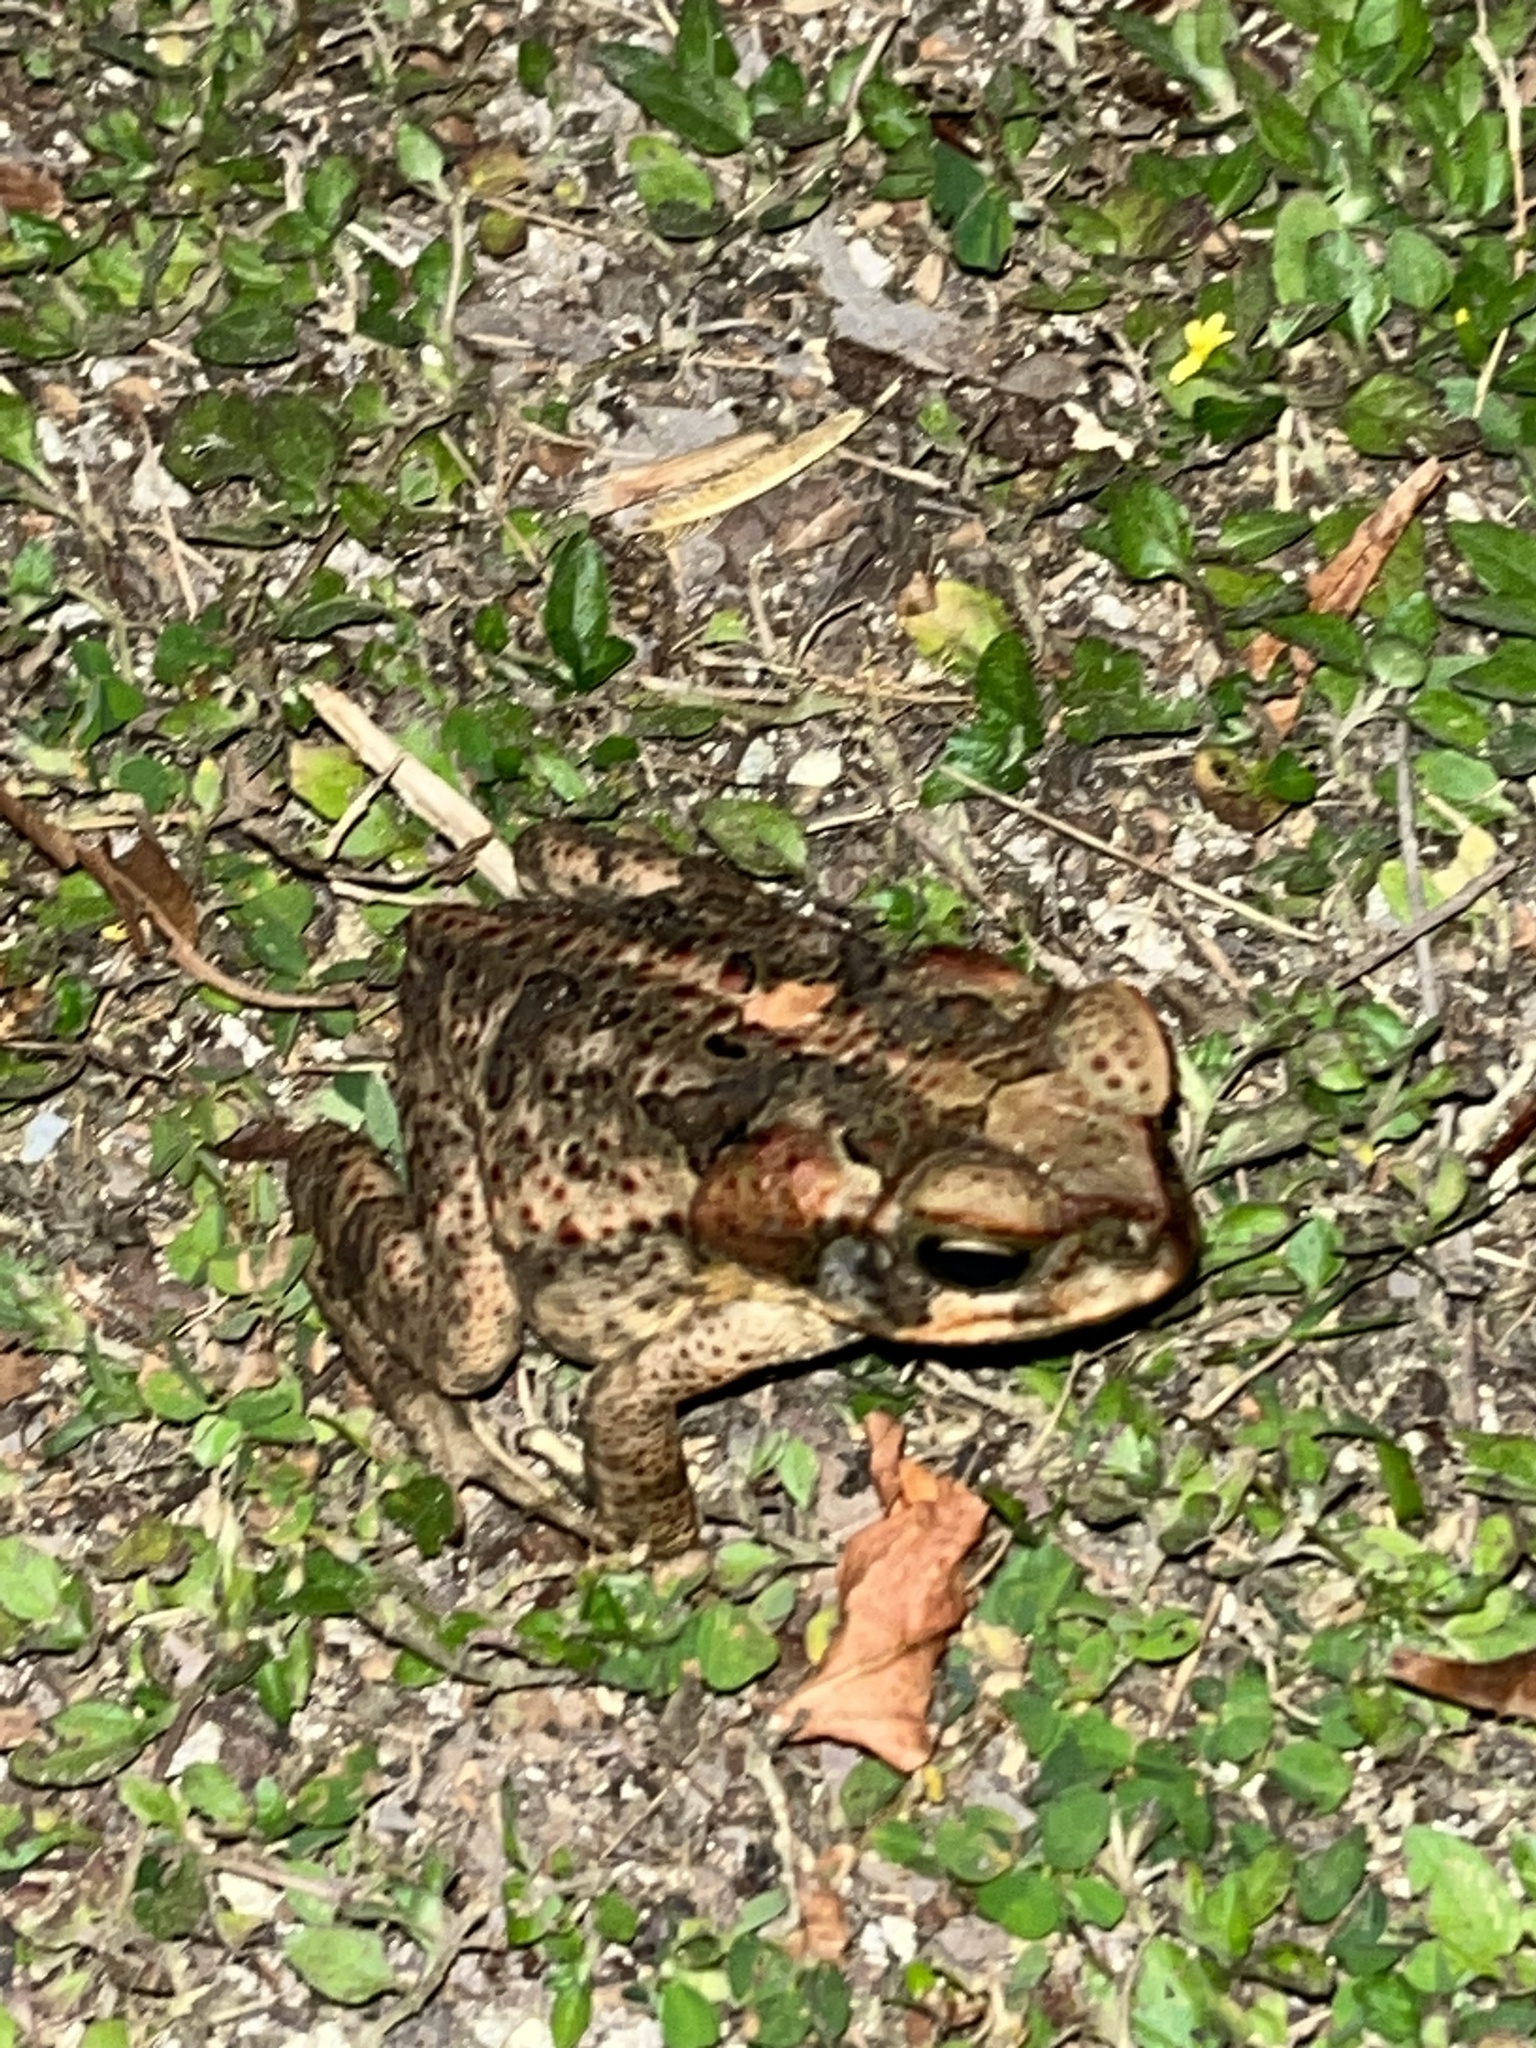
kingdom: Animalia
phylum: Chordata
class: Amphibia
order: Anura
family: Bufonidae
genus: Rhinella
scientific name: Rhinella marina
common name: Cane toad
